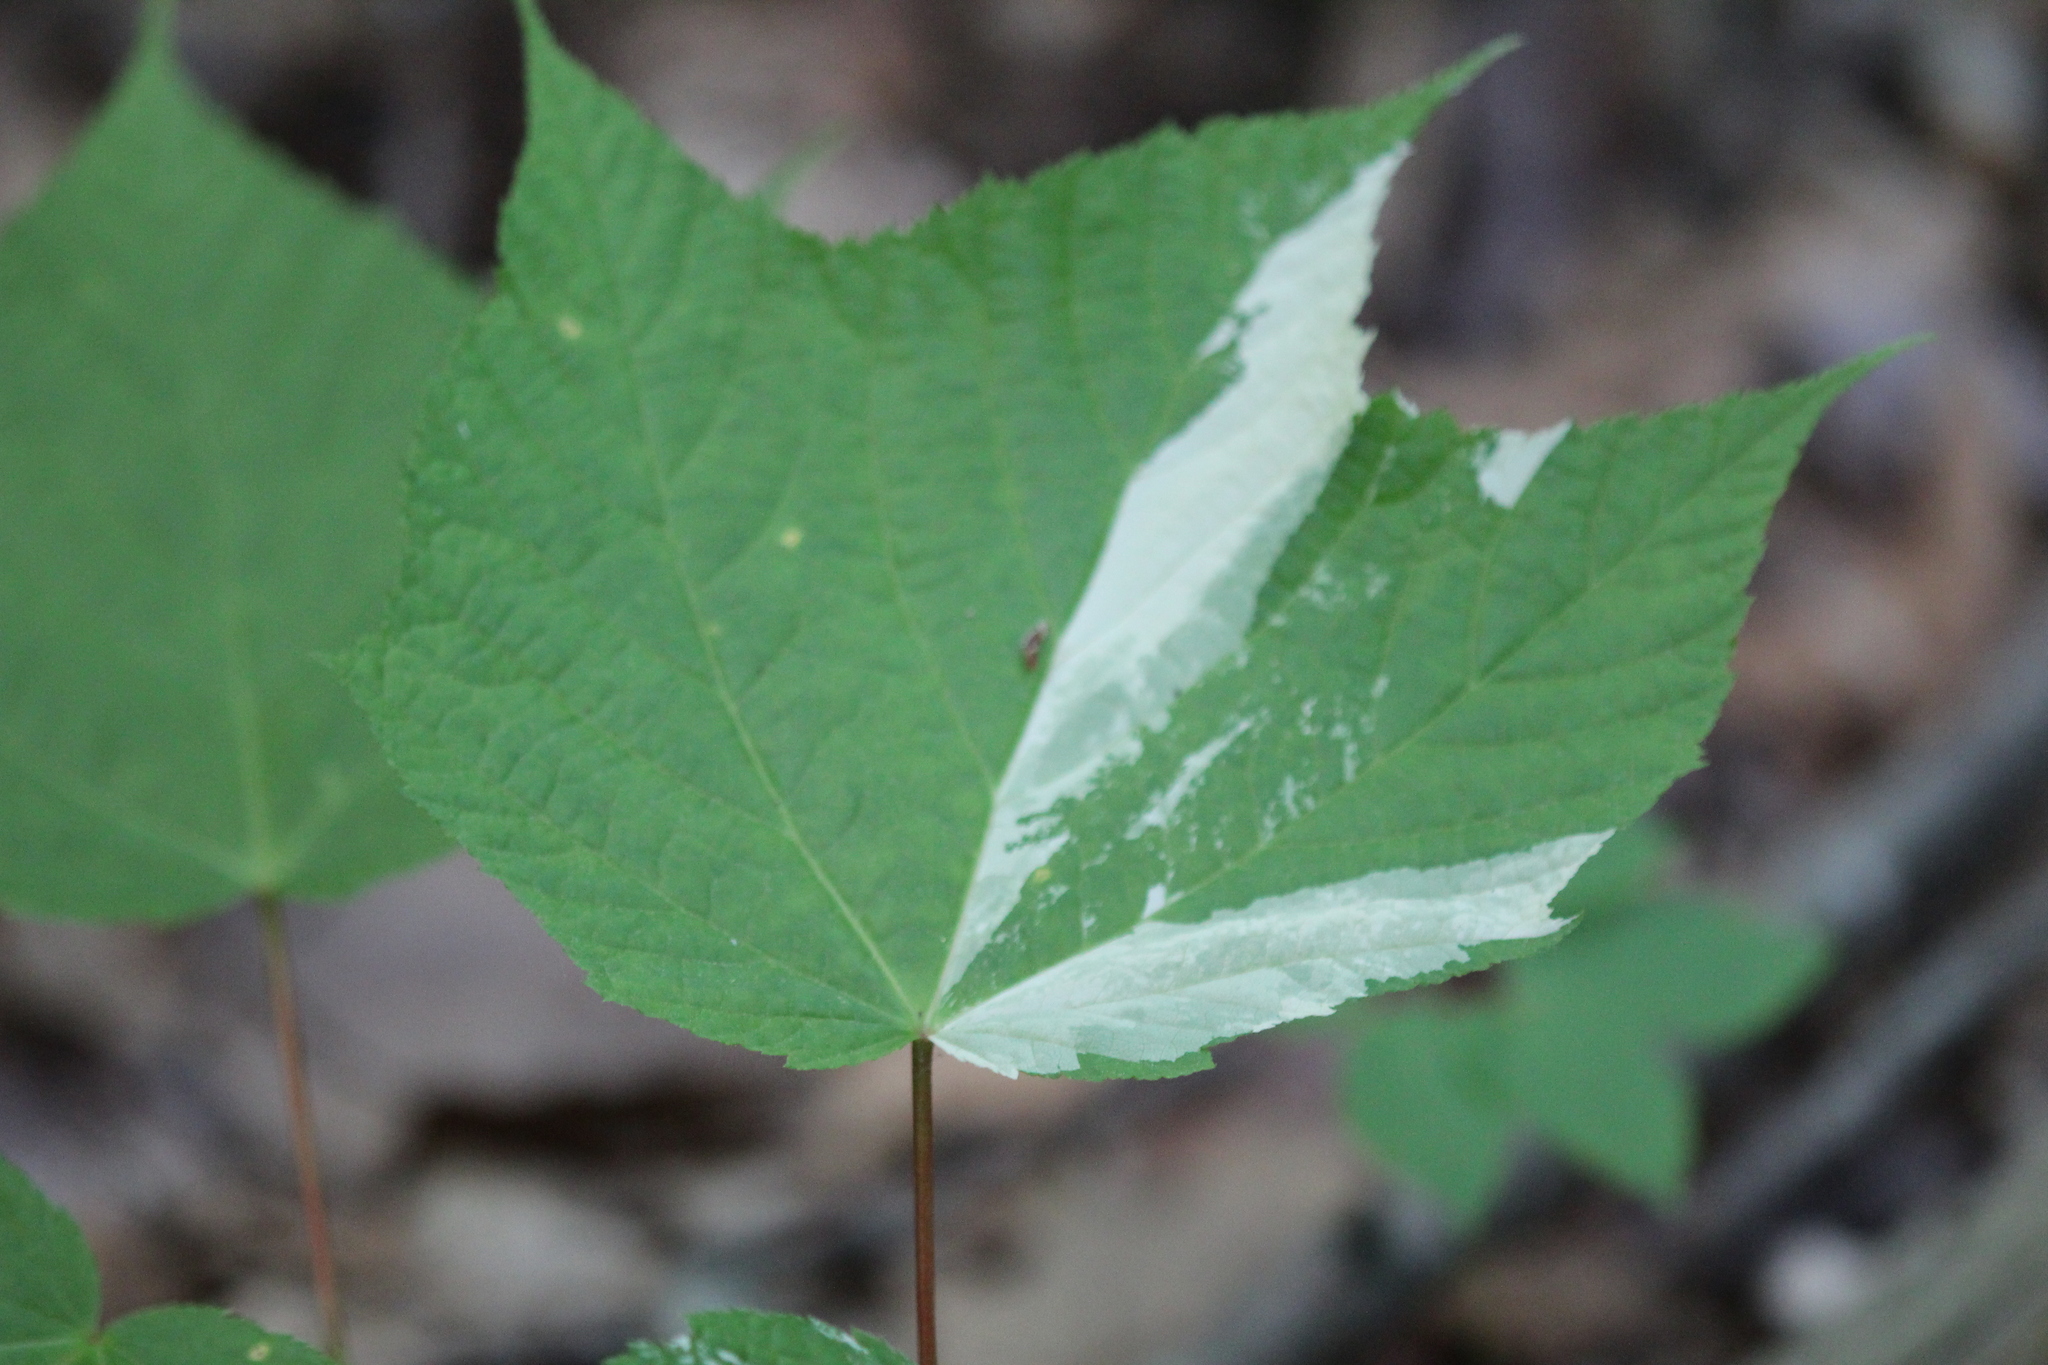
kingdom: Plantae
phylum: Tracheophyta
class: Magnoliopsida
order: Sapindales
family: Sapindaceae
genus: Acer
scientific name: Acer pensylvanicum
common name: Moosewood
